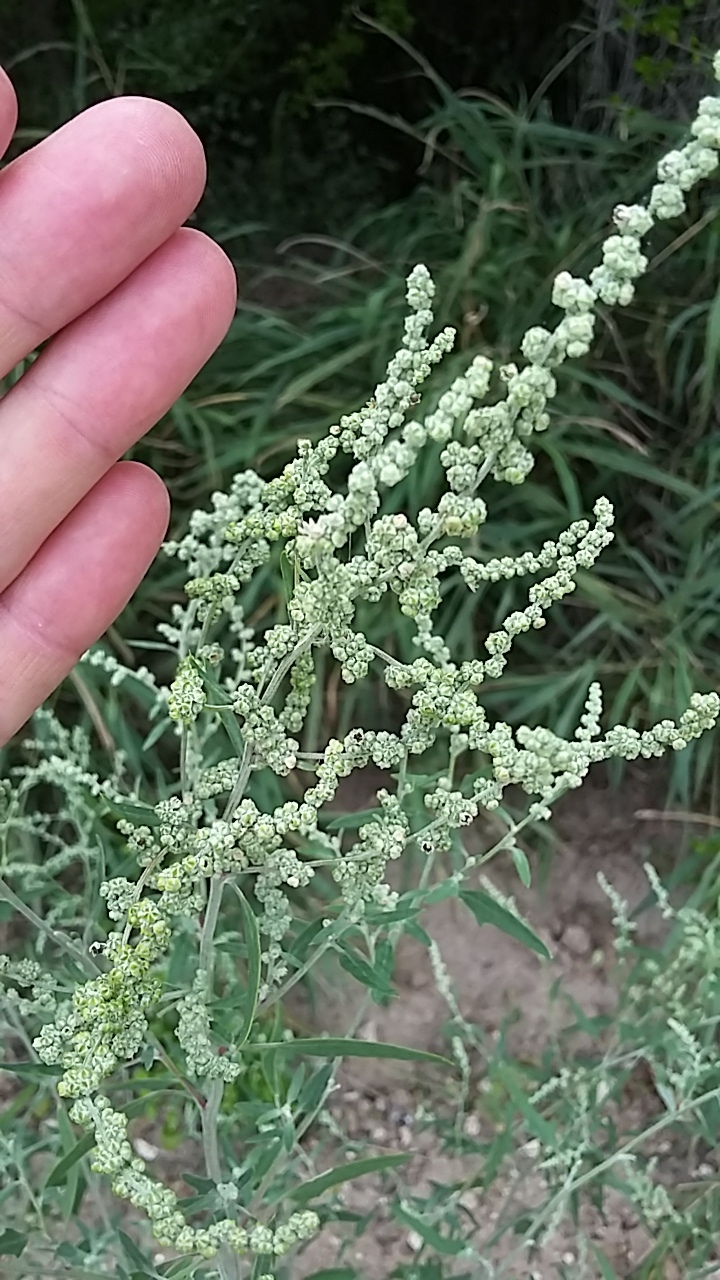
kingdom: Plantae
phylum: Tracheophyta
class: Magnoliopsida
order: Caryophyllales
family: Amaranthaceae
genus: Chenopodium
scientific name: Chenopodium pratericola
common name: Desert goosefoot
